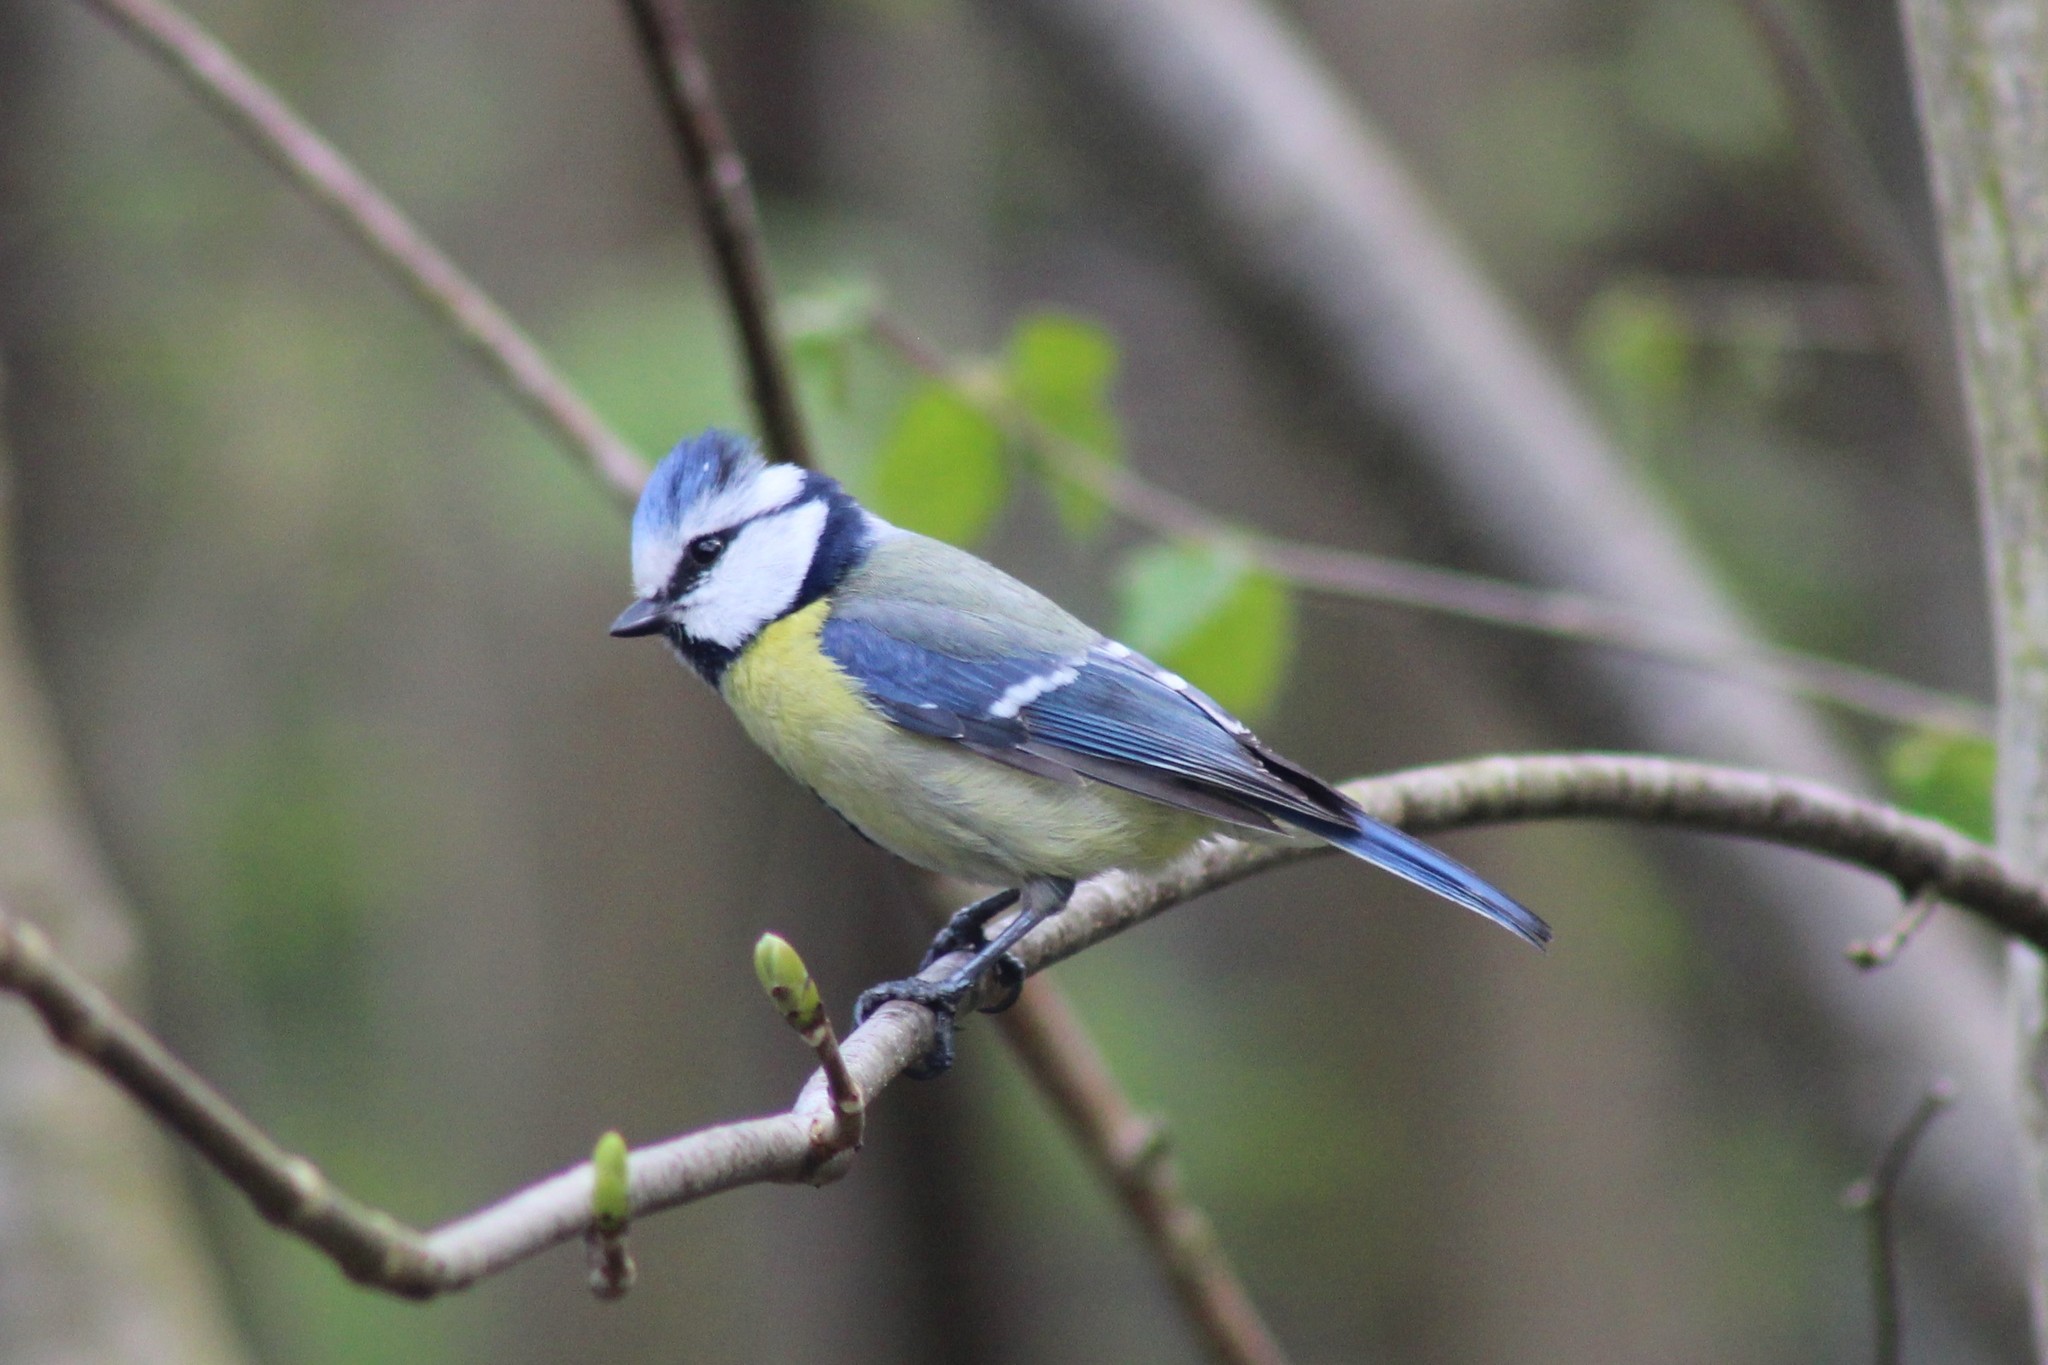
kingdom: Animalia
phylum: Chordata
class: Aves
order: Passeriformes
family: Paridae
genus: Cyanistes
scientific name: Cyanistes caeruleus
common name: Eurasian blue tit
